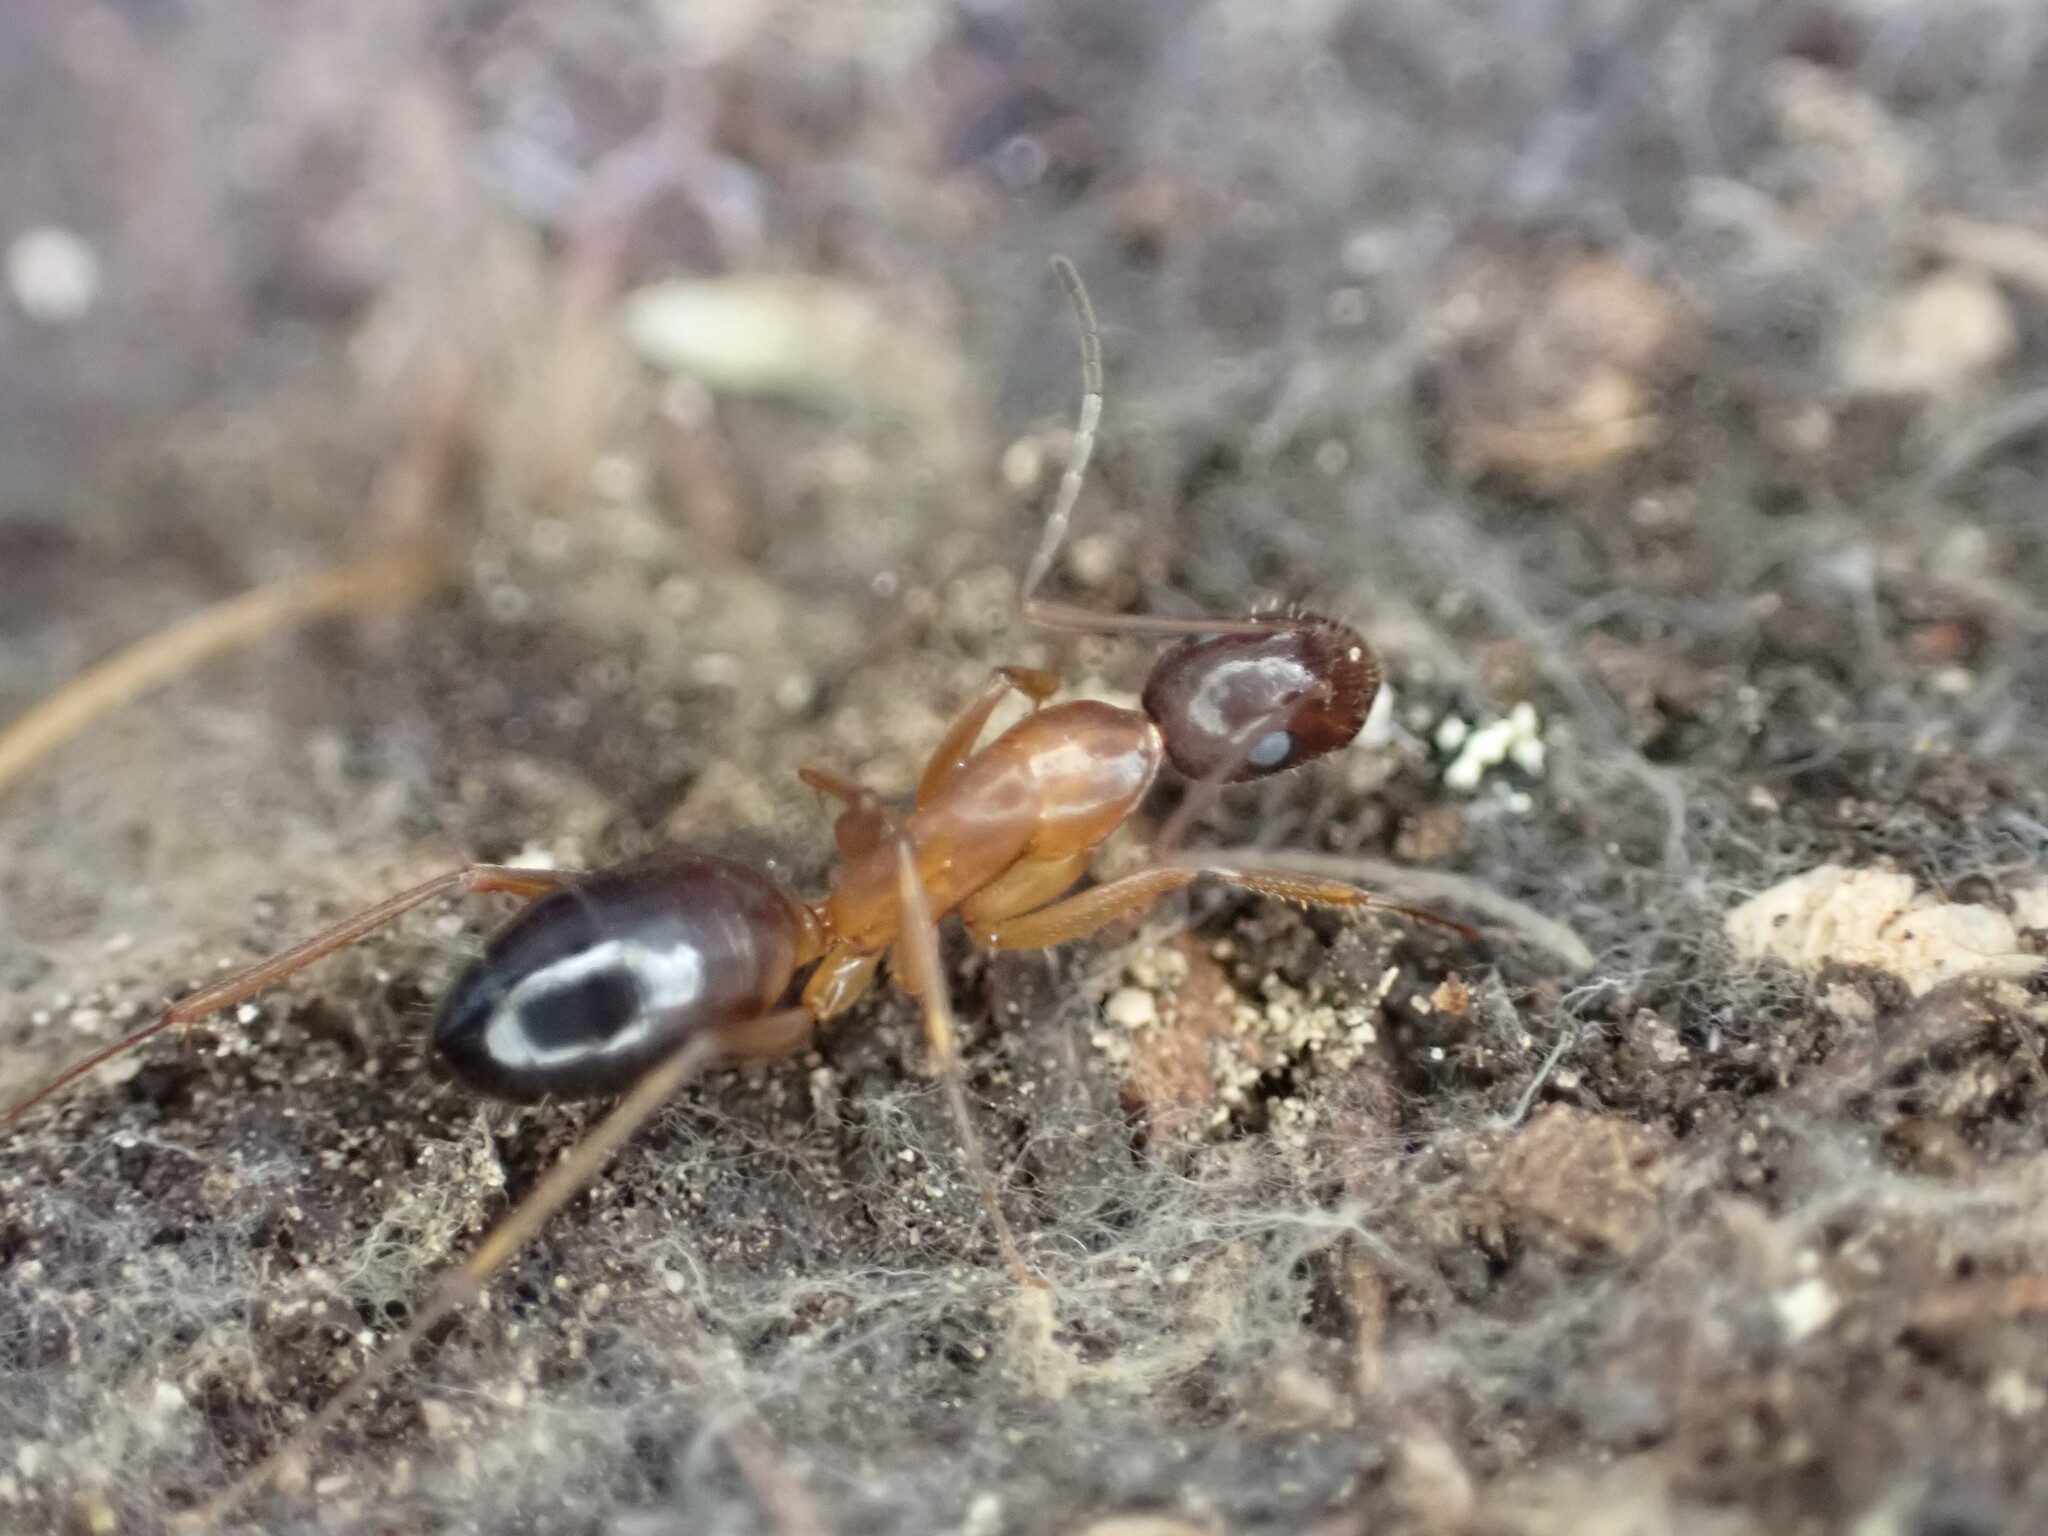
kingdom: Animalia
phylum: Arthropoda
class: Insecta
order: Hymenoptera
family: Formicidae
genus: Camponotus
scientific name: Camponotus pilicornis
